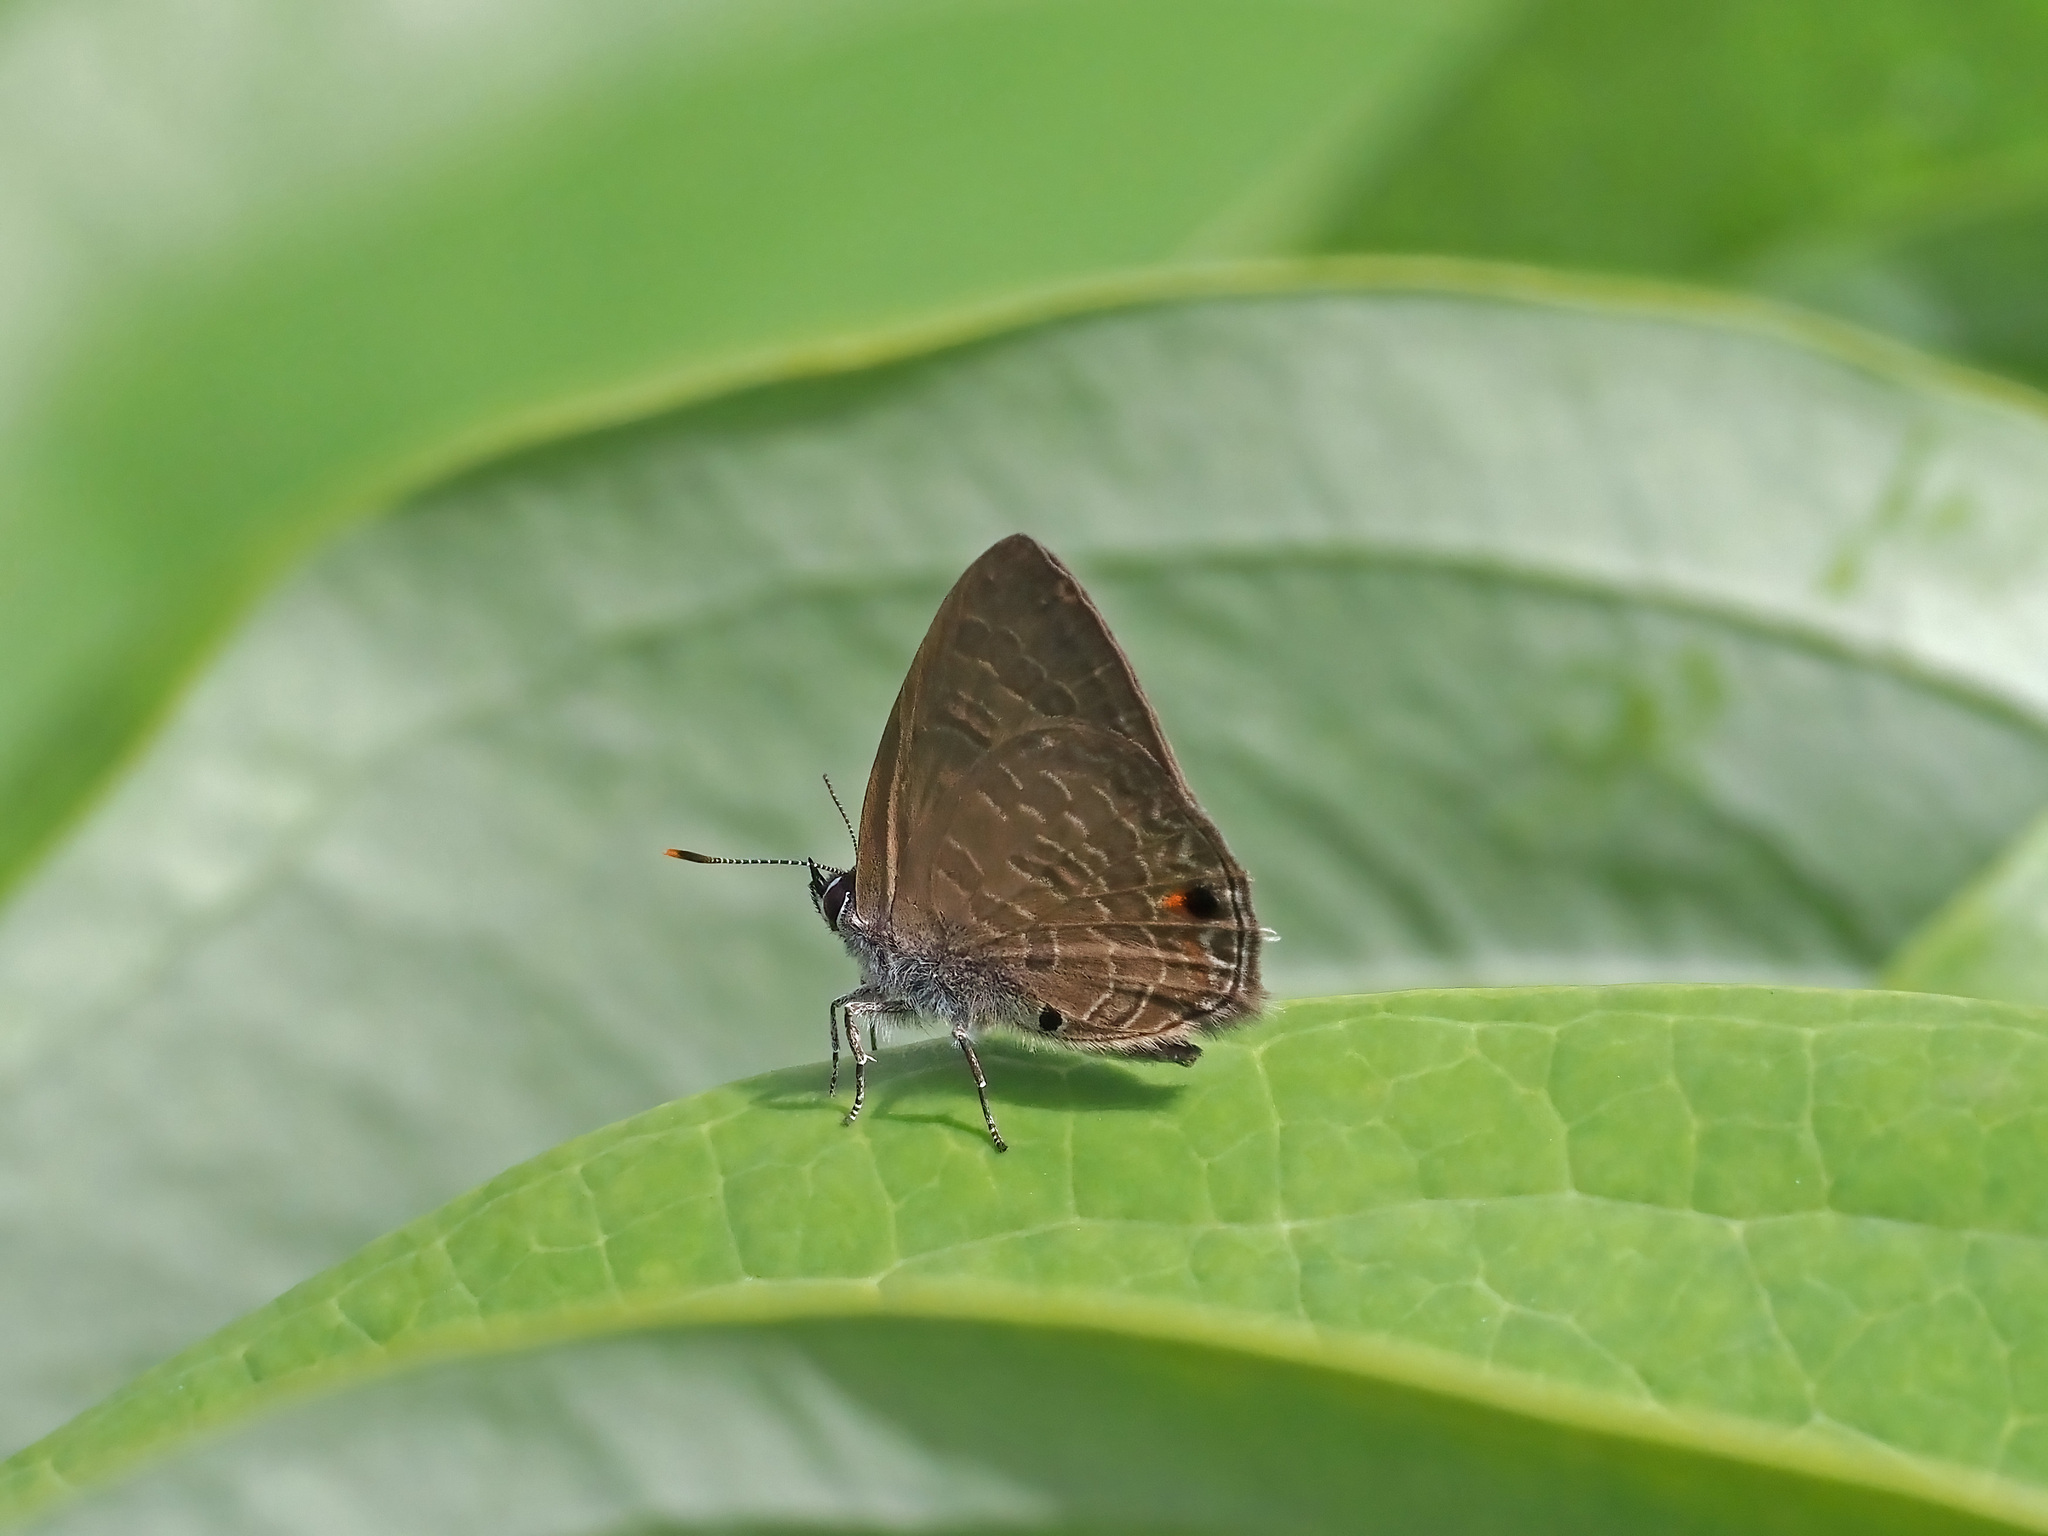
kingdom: Animalia
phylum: Arthropoda
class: Insecta
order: Lepidoptera
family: Lycaenidae
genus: Anthene
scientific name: Anthene emolus
